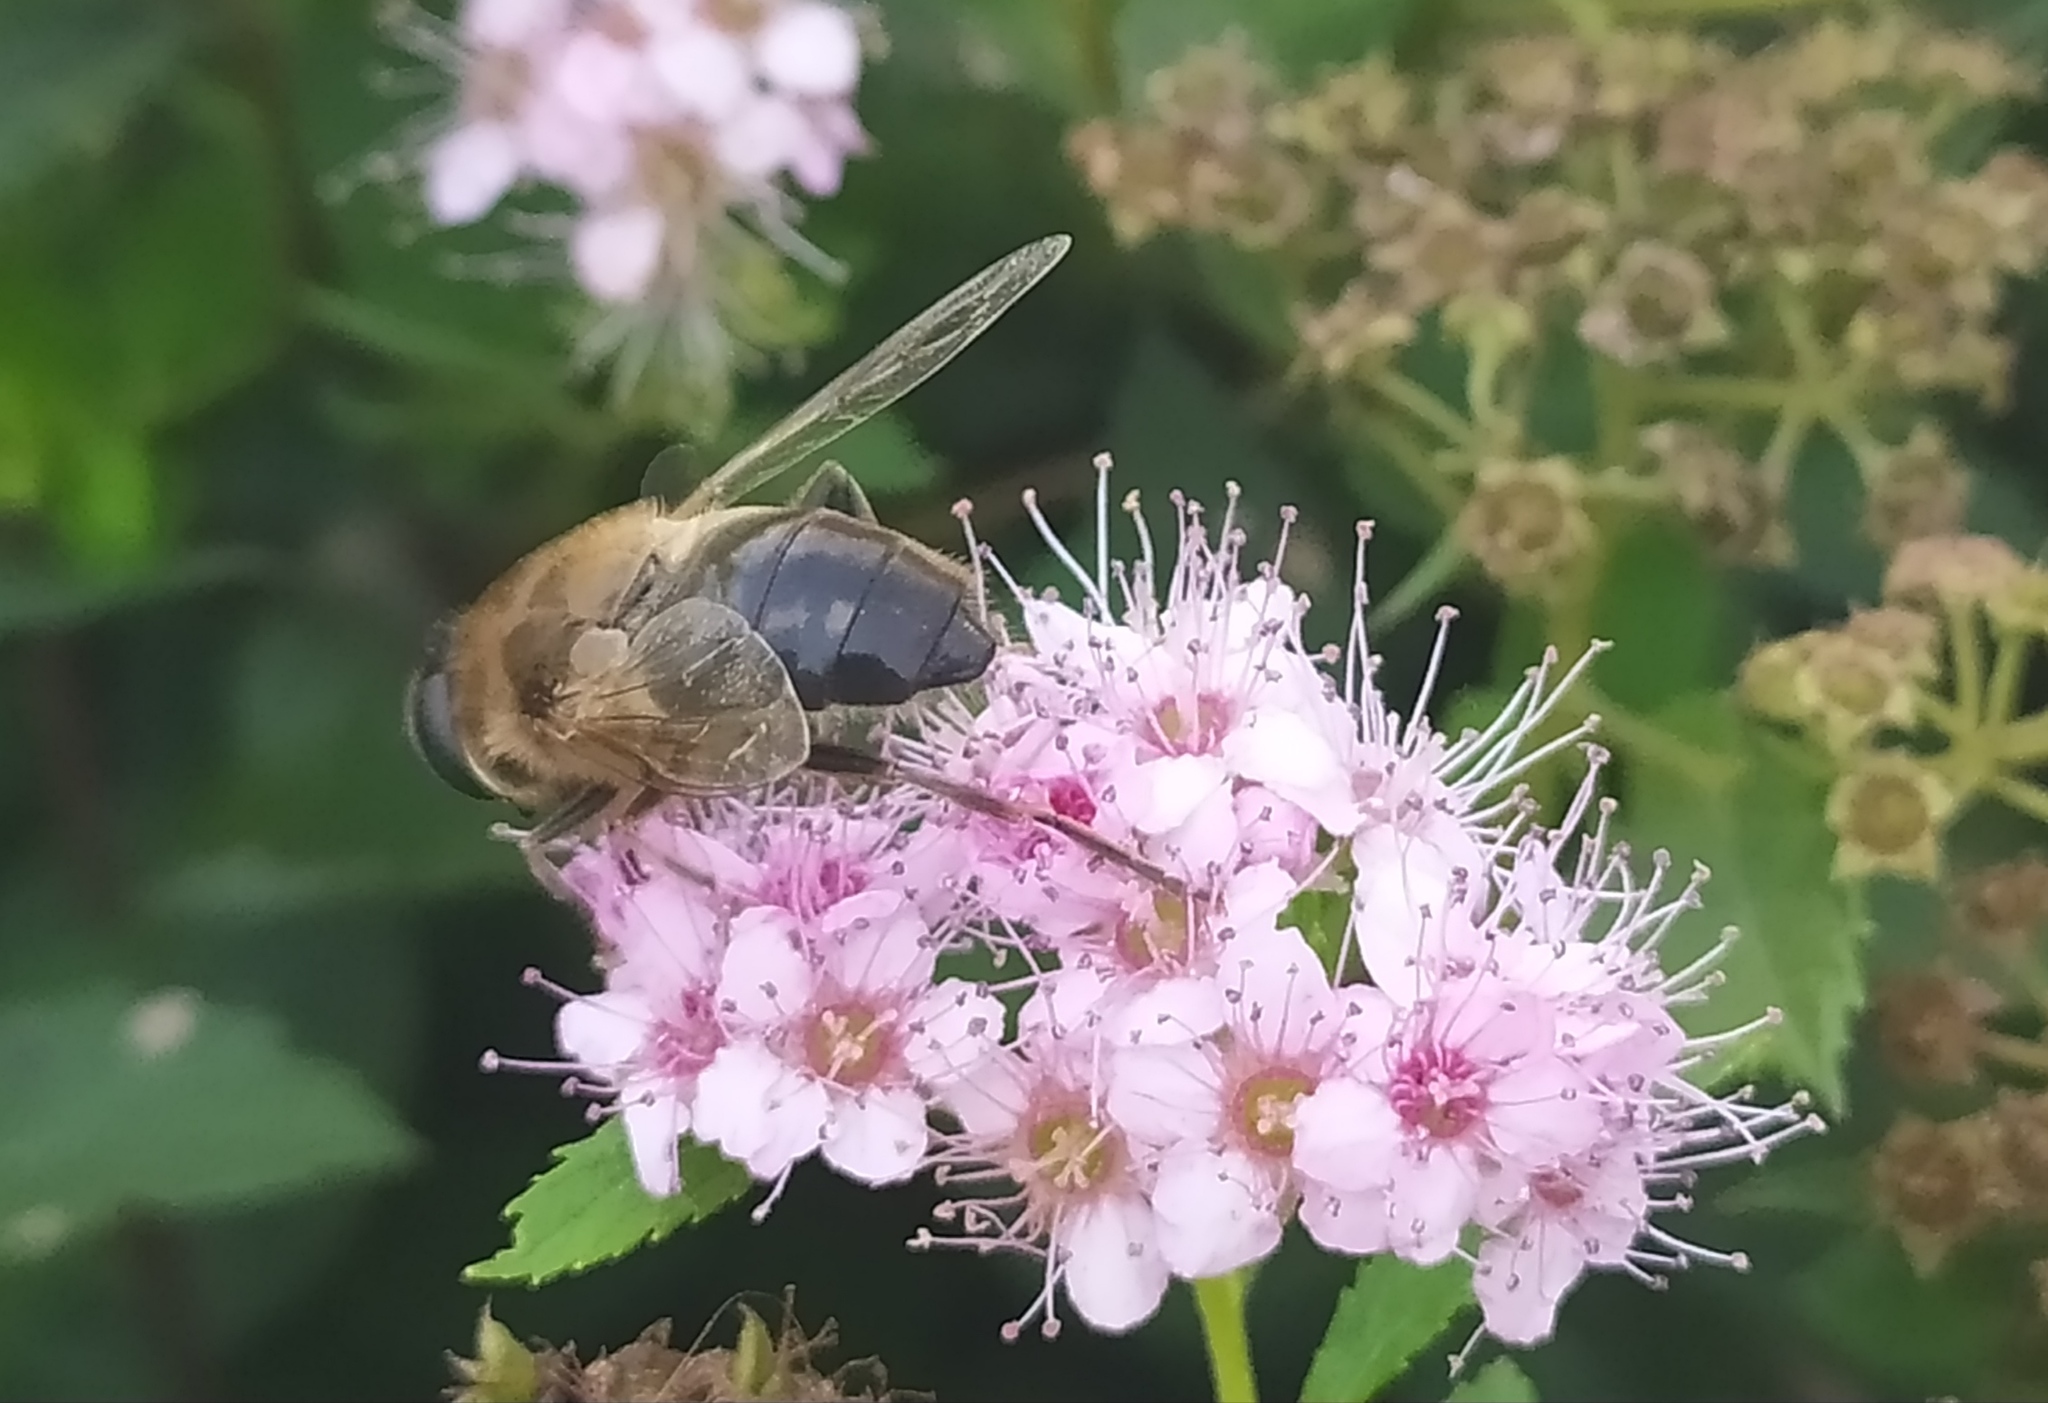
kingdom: Animalia
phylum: Arthropoda
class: Insecta
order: Diptera
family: Syrphidae
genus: Eristalis
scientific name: Eristalis tenax
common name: Drone fly
